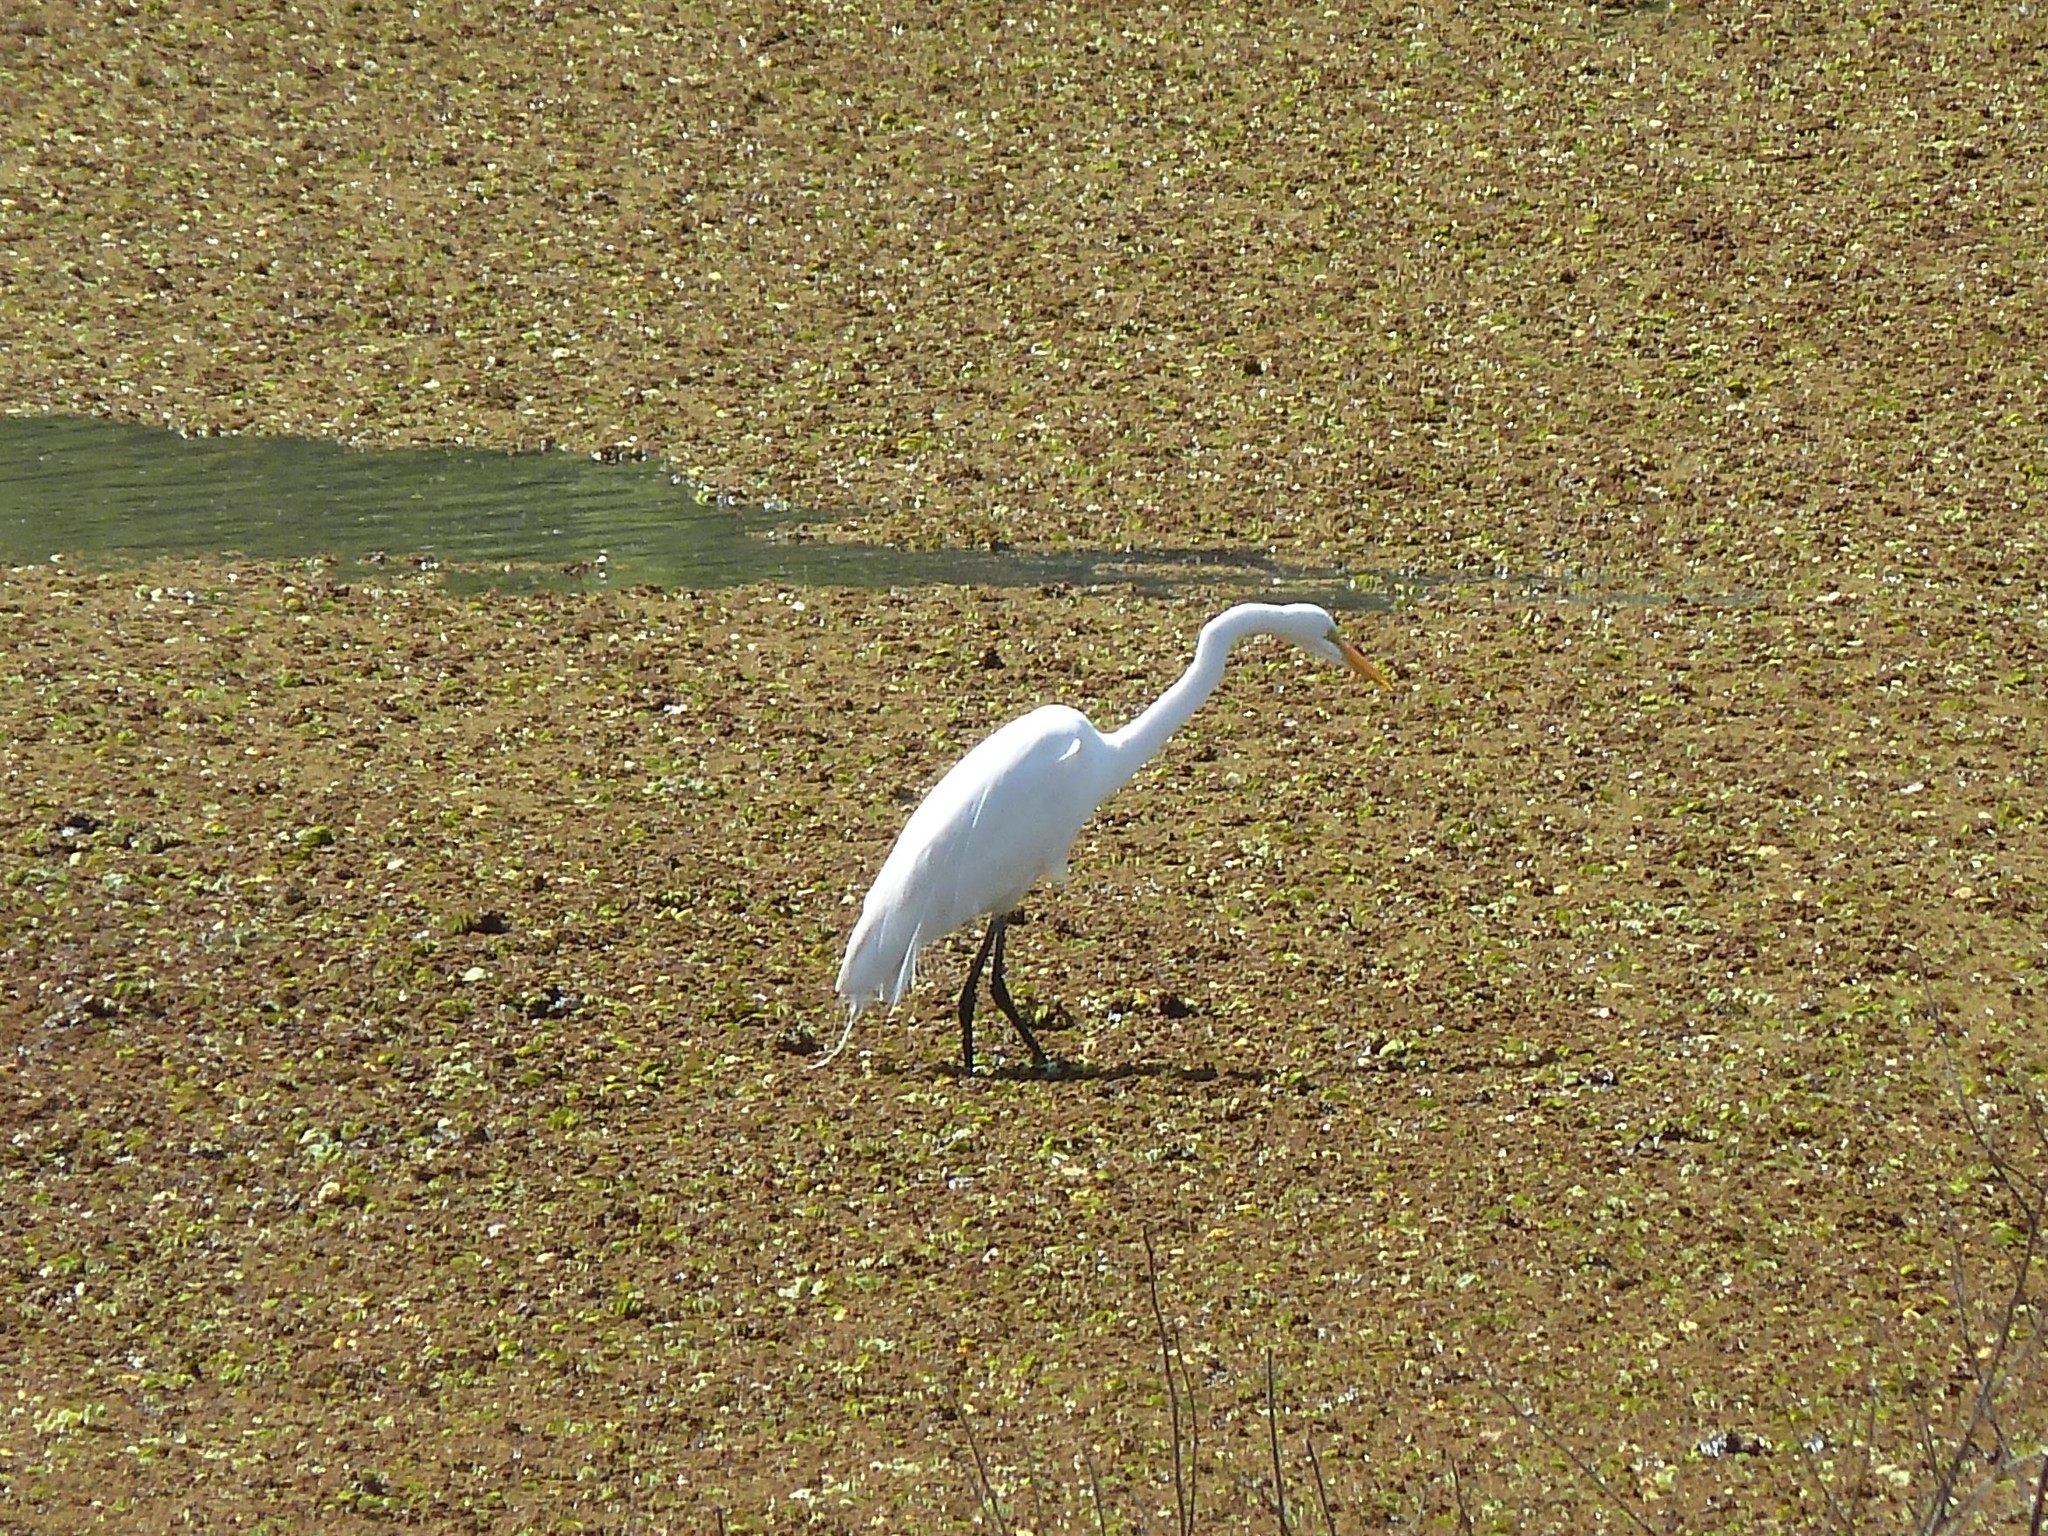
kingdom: Animalia
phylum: Chordata
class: Aves
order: Pelecaniformes
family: Ardeidae
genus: Ardea
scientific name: Ardea alba
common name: Great egret
